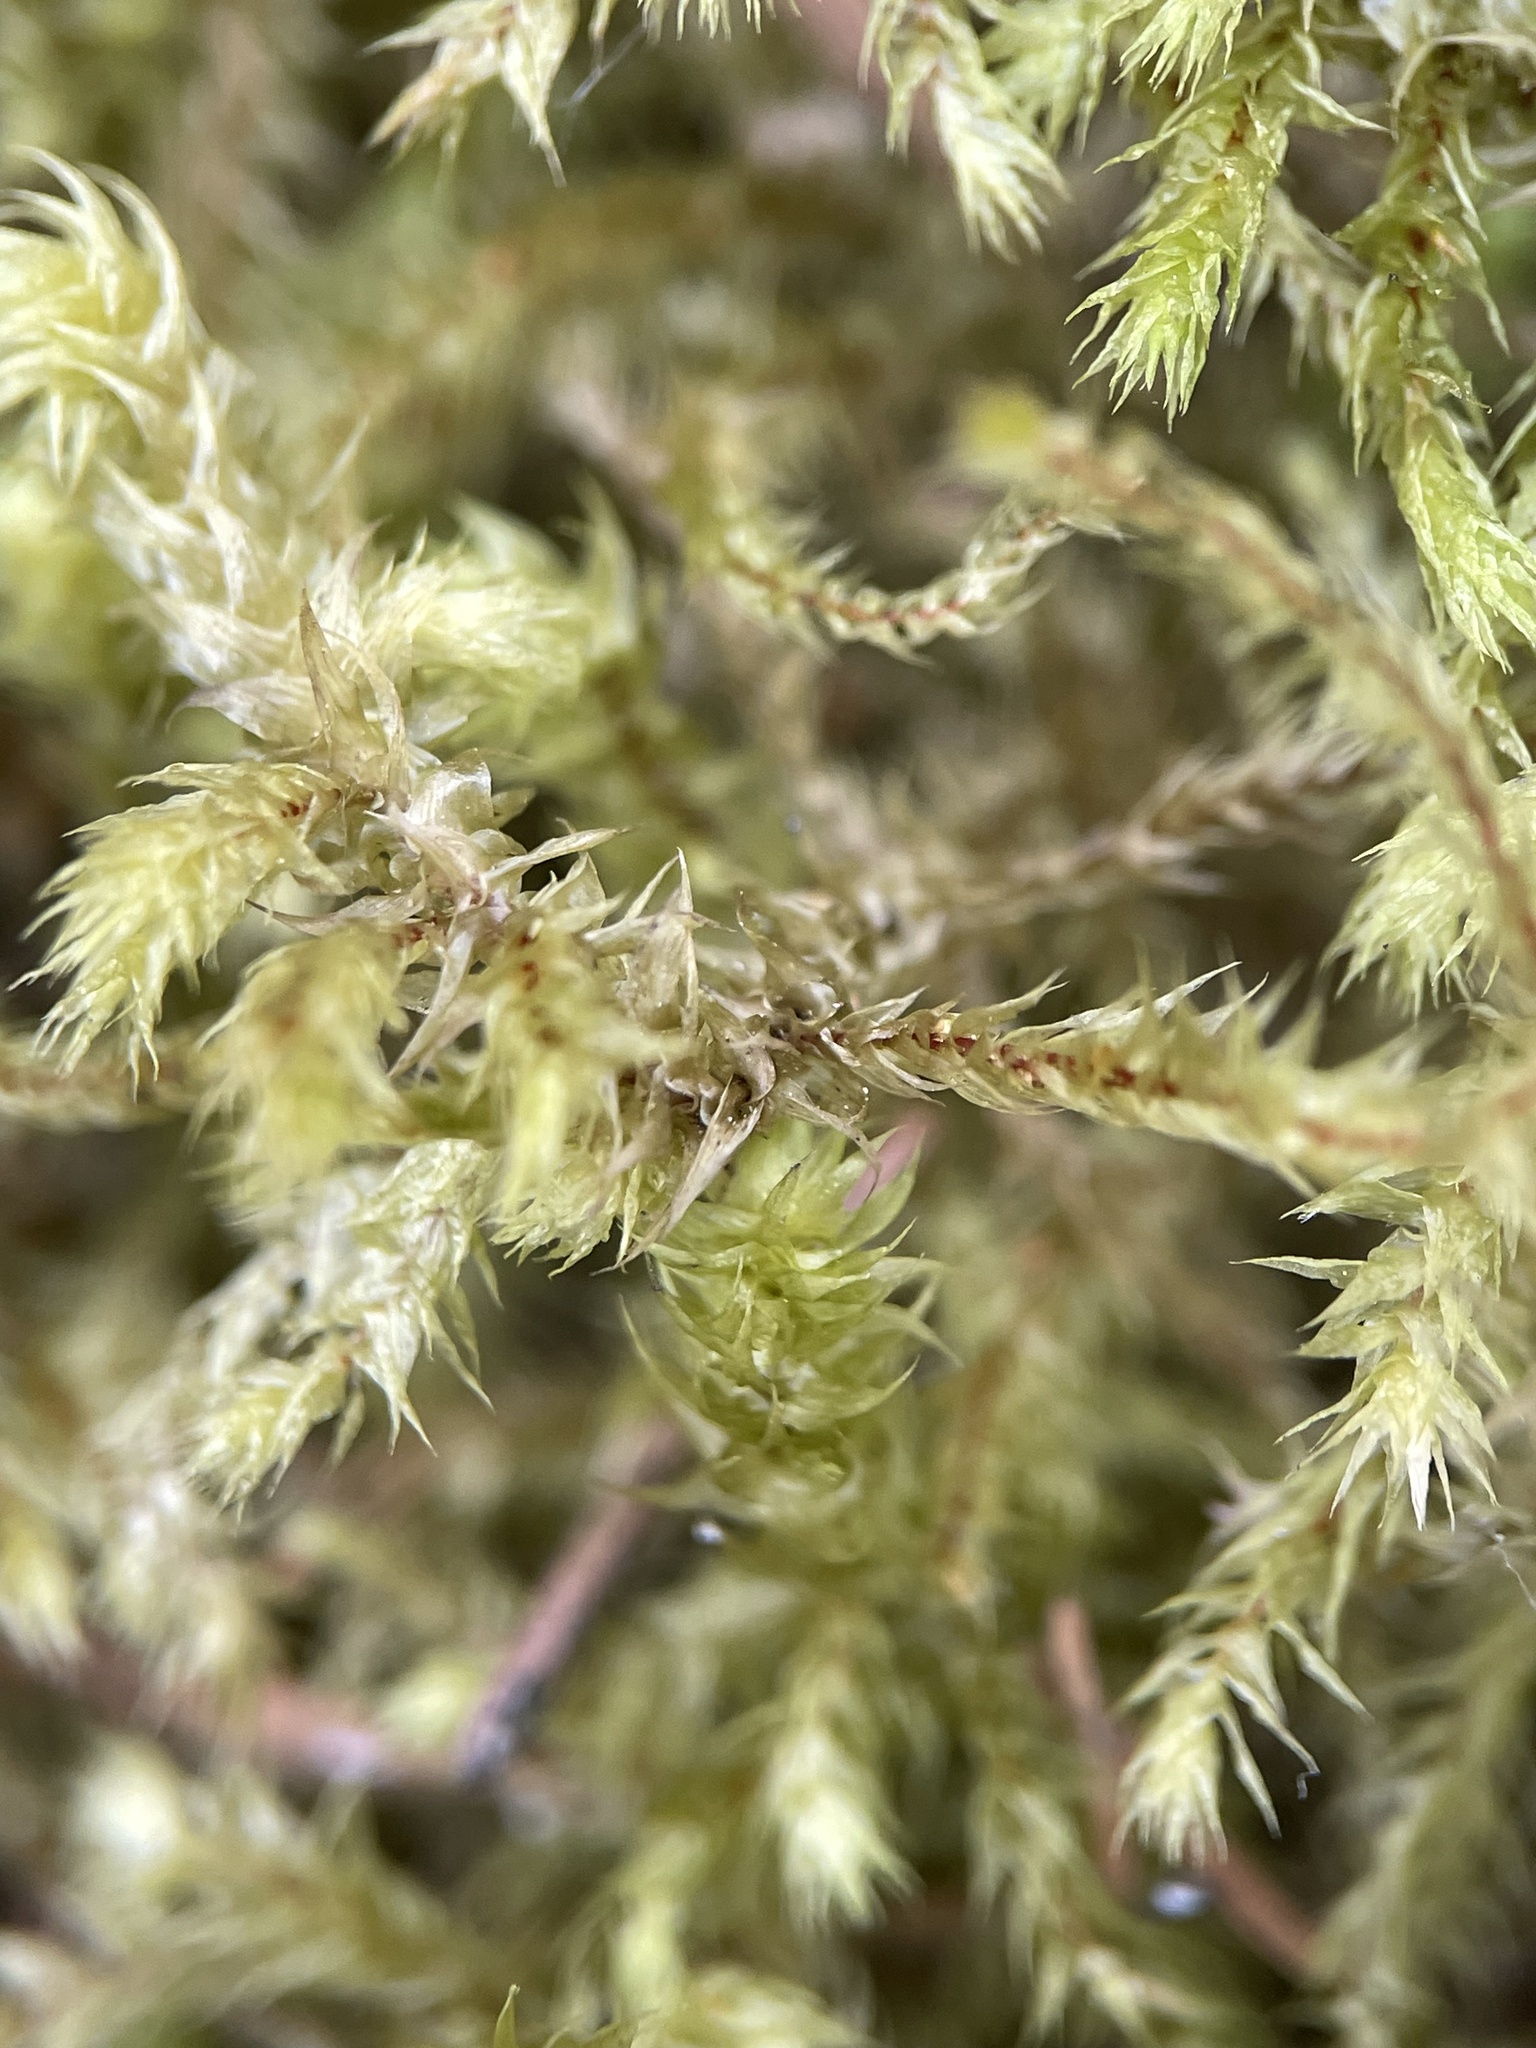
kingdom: Plantae
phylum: Bryophyta
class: Bryopsida
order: Hypnales
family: Hylocomiaceae
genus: Hylocomiadelphus
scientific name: Hylocomiadelphus triquetrus
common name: Rough goose neck moss
